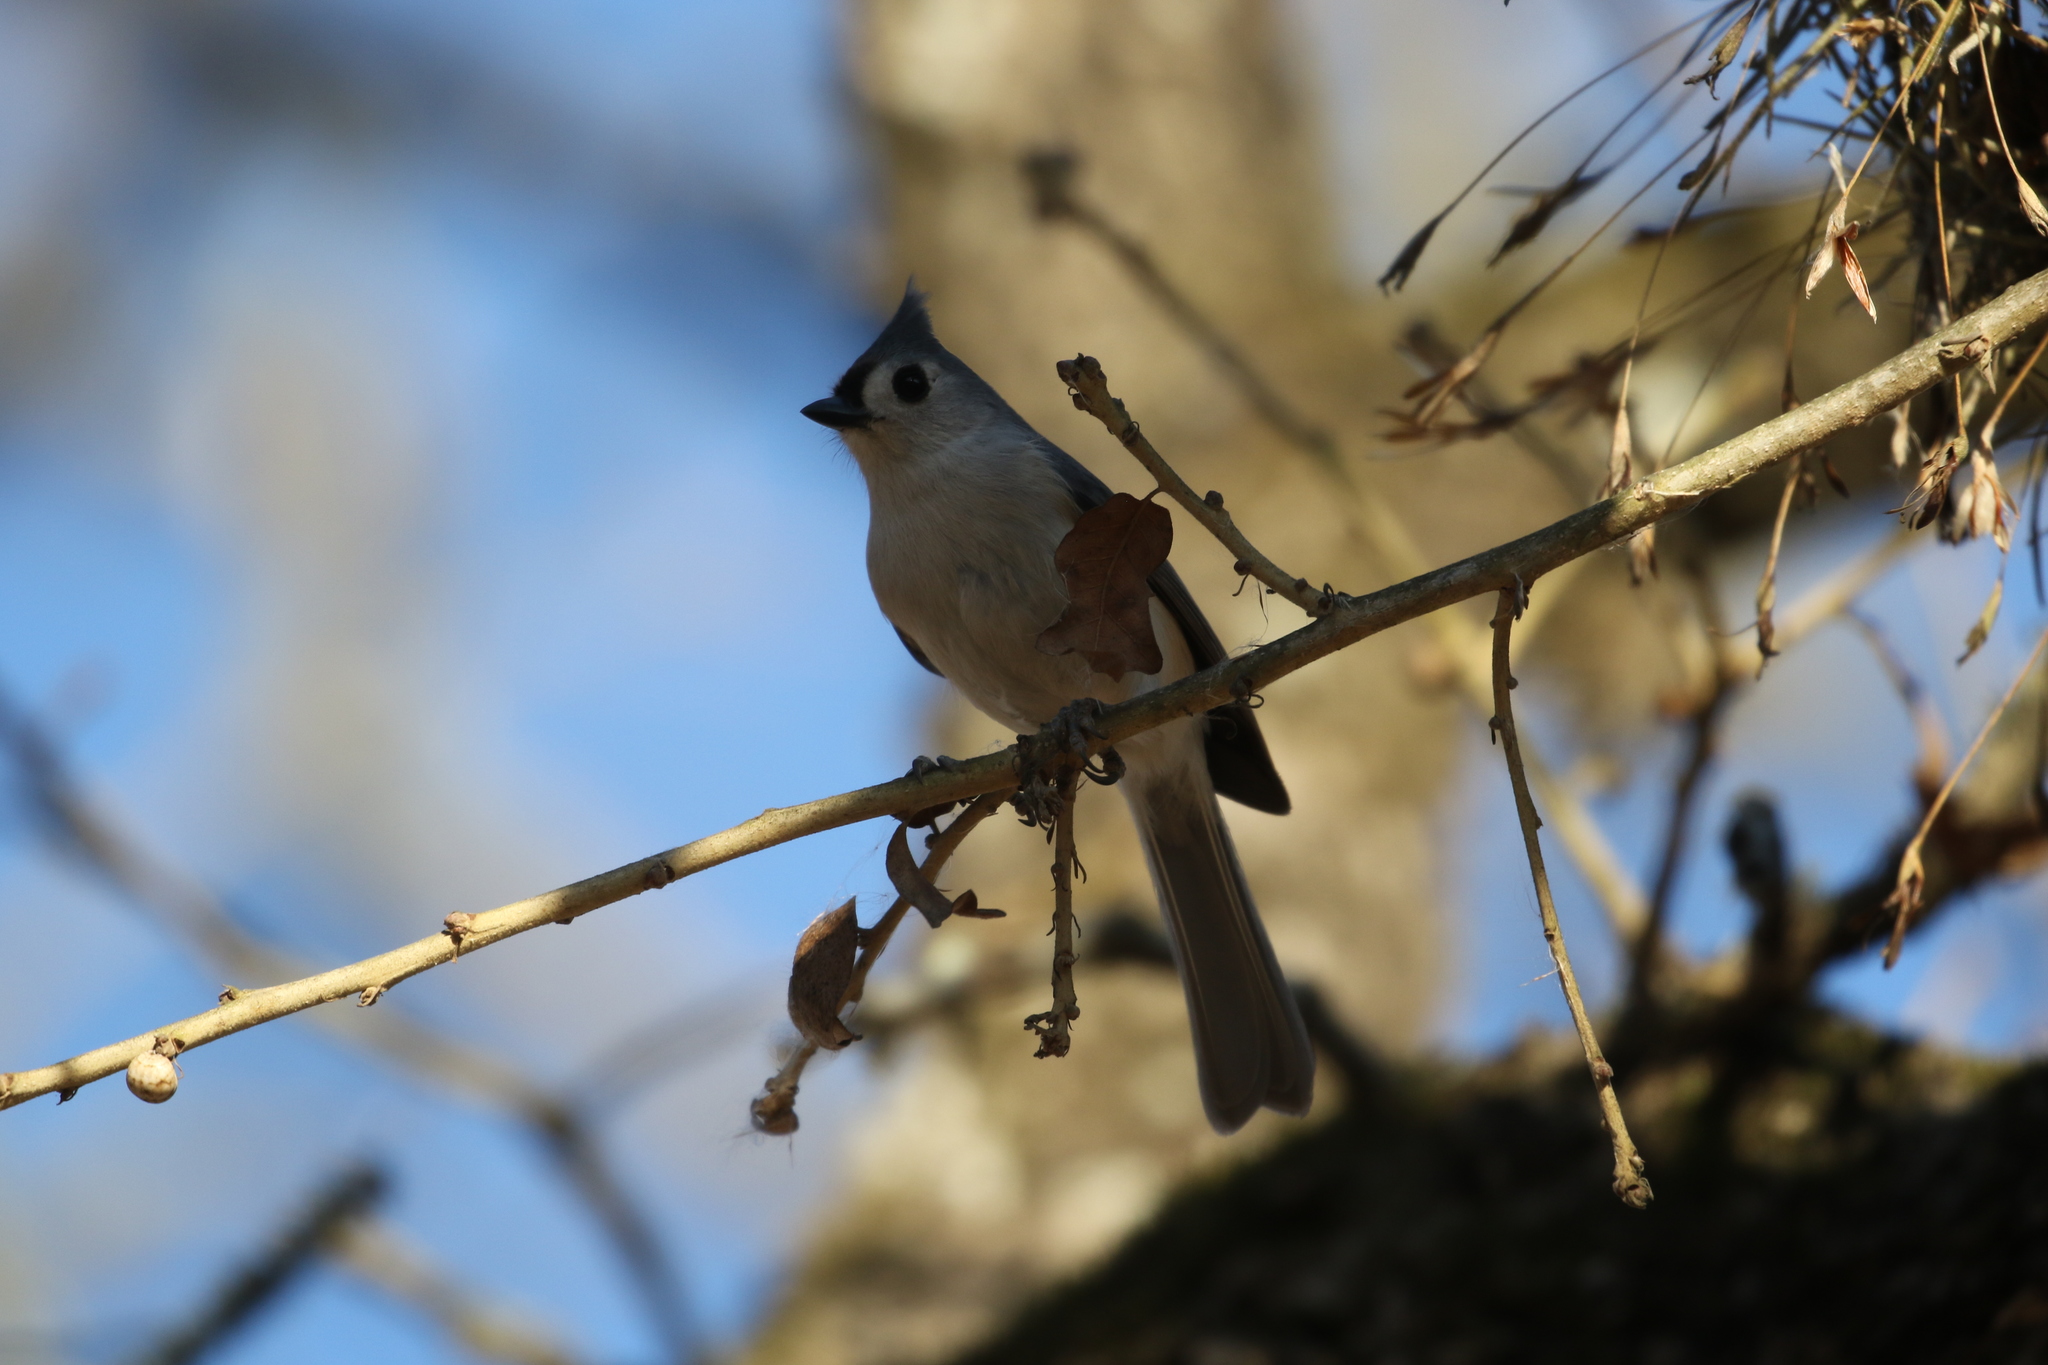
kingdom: Animalia
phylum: Chordata
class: Aves
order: Passeriformes
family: Paridae
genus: Baeolophus
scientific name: Baeolophus bicolor
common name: Tufted titmouse
